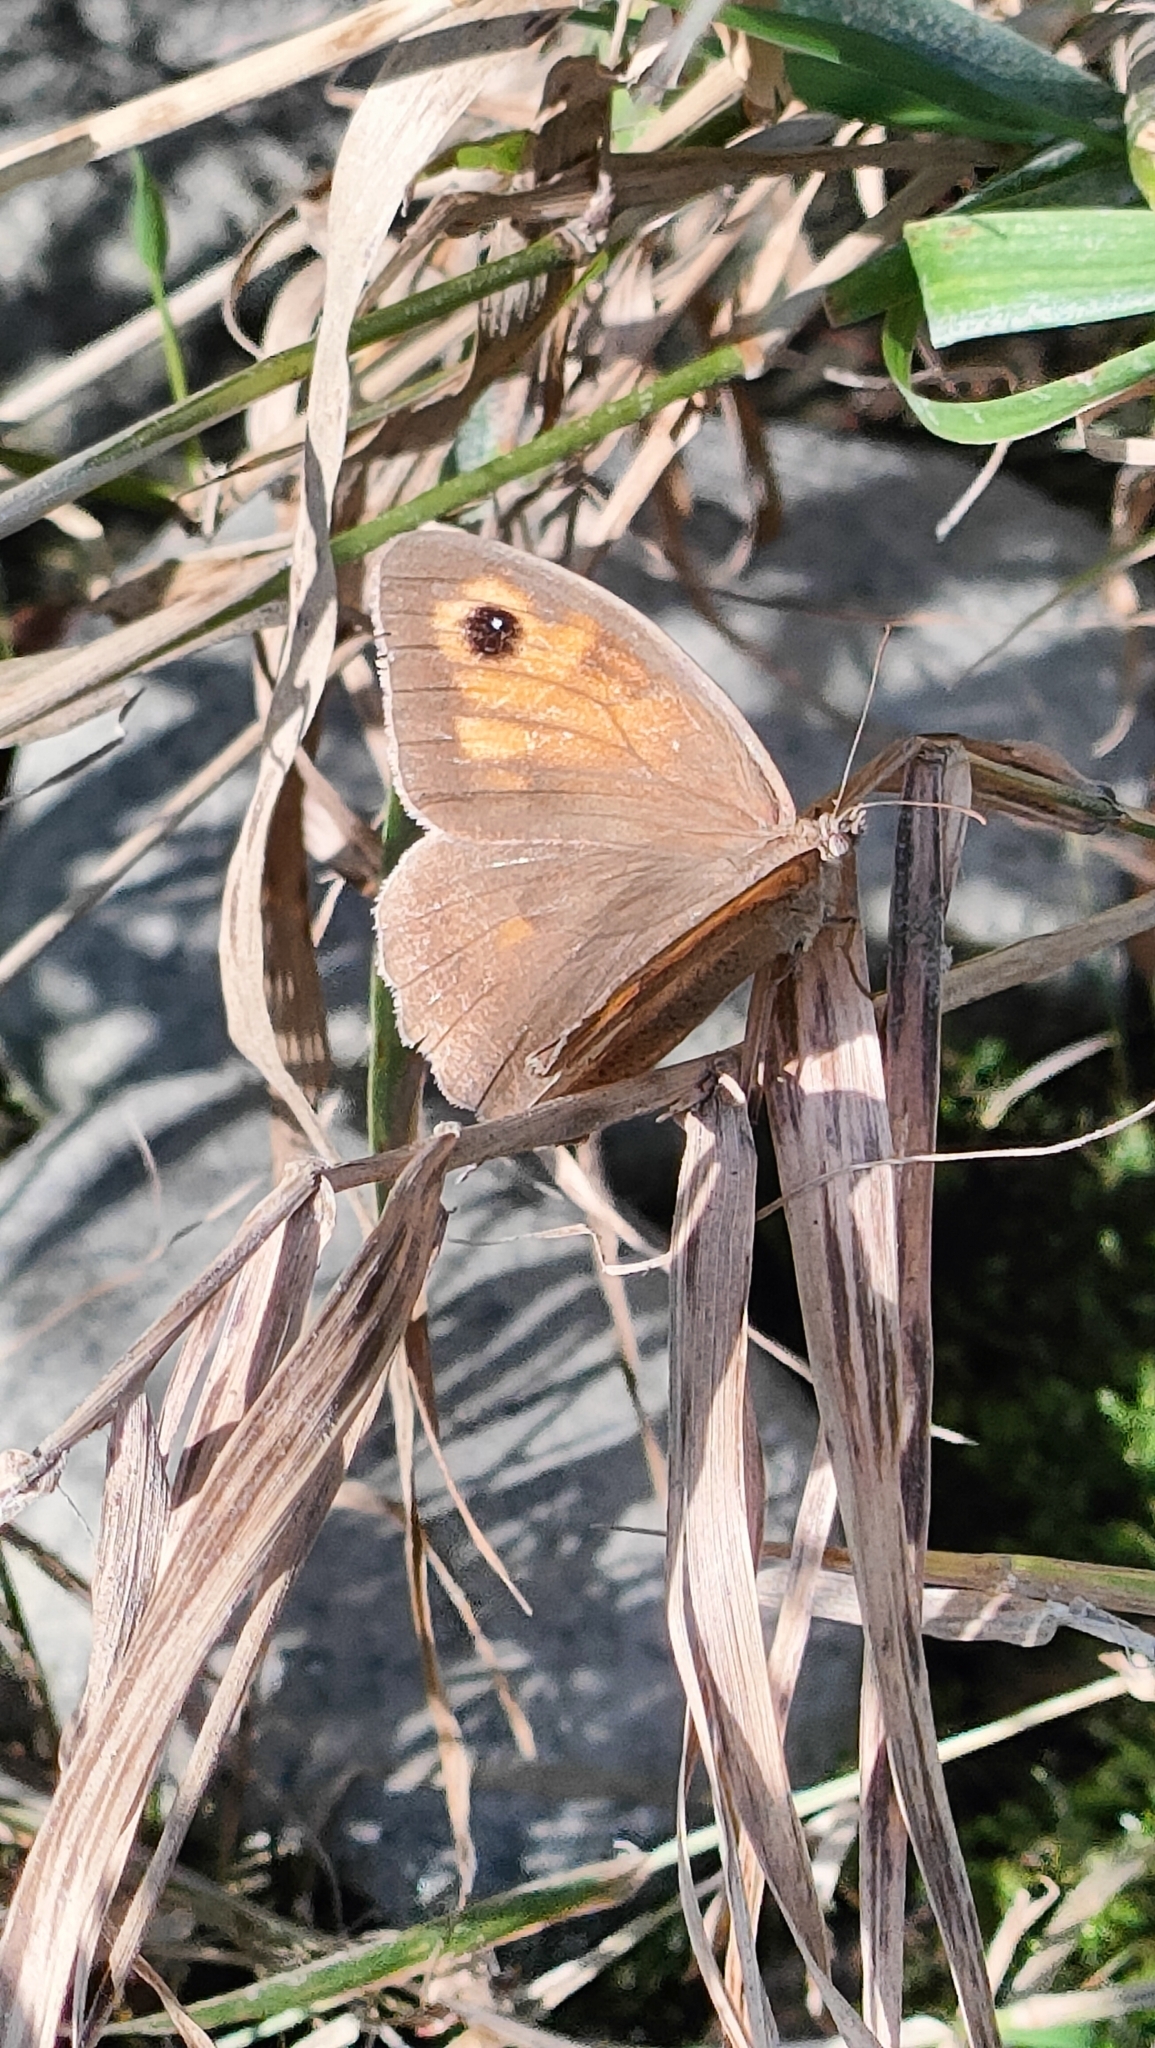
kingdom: Animalia
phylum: Arthropoda
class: Insecta
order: Lepidoptera
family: Nymphalidae
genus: Maniola
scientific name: Maniola jurtina
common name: Meadow brown
